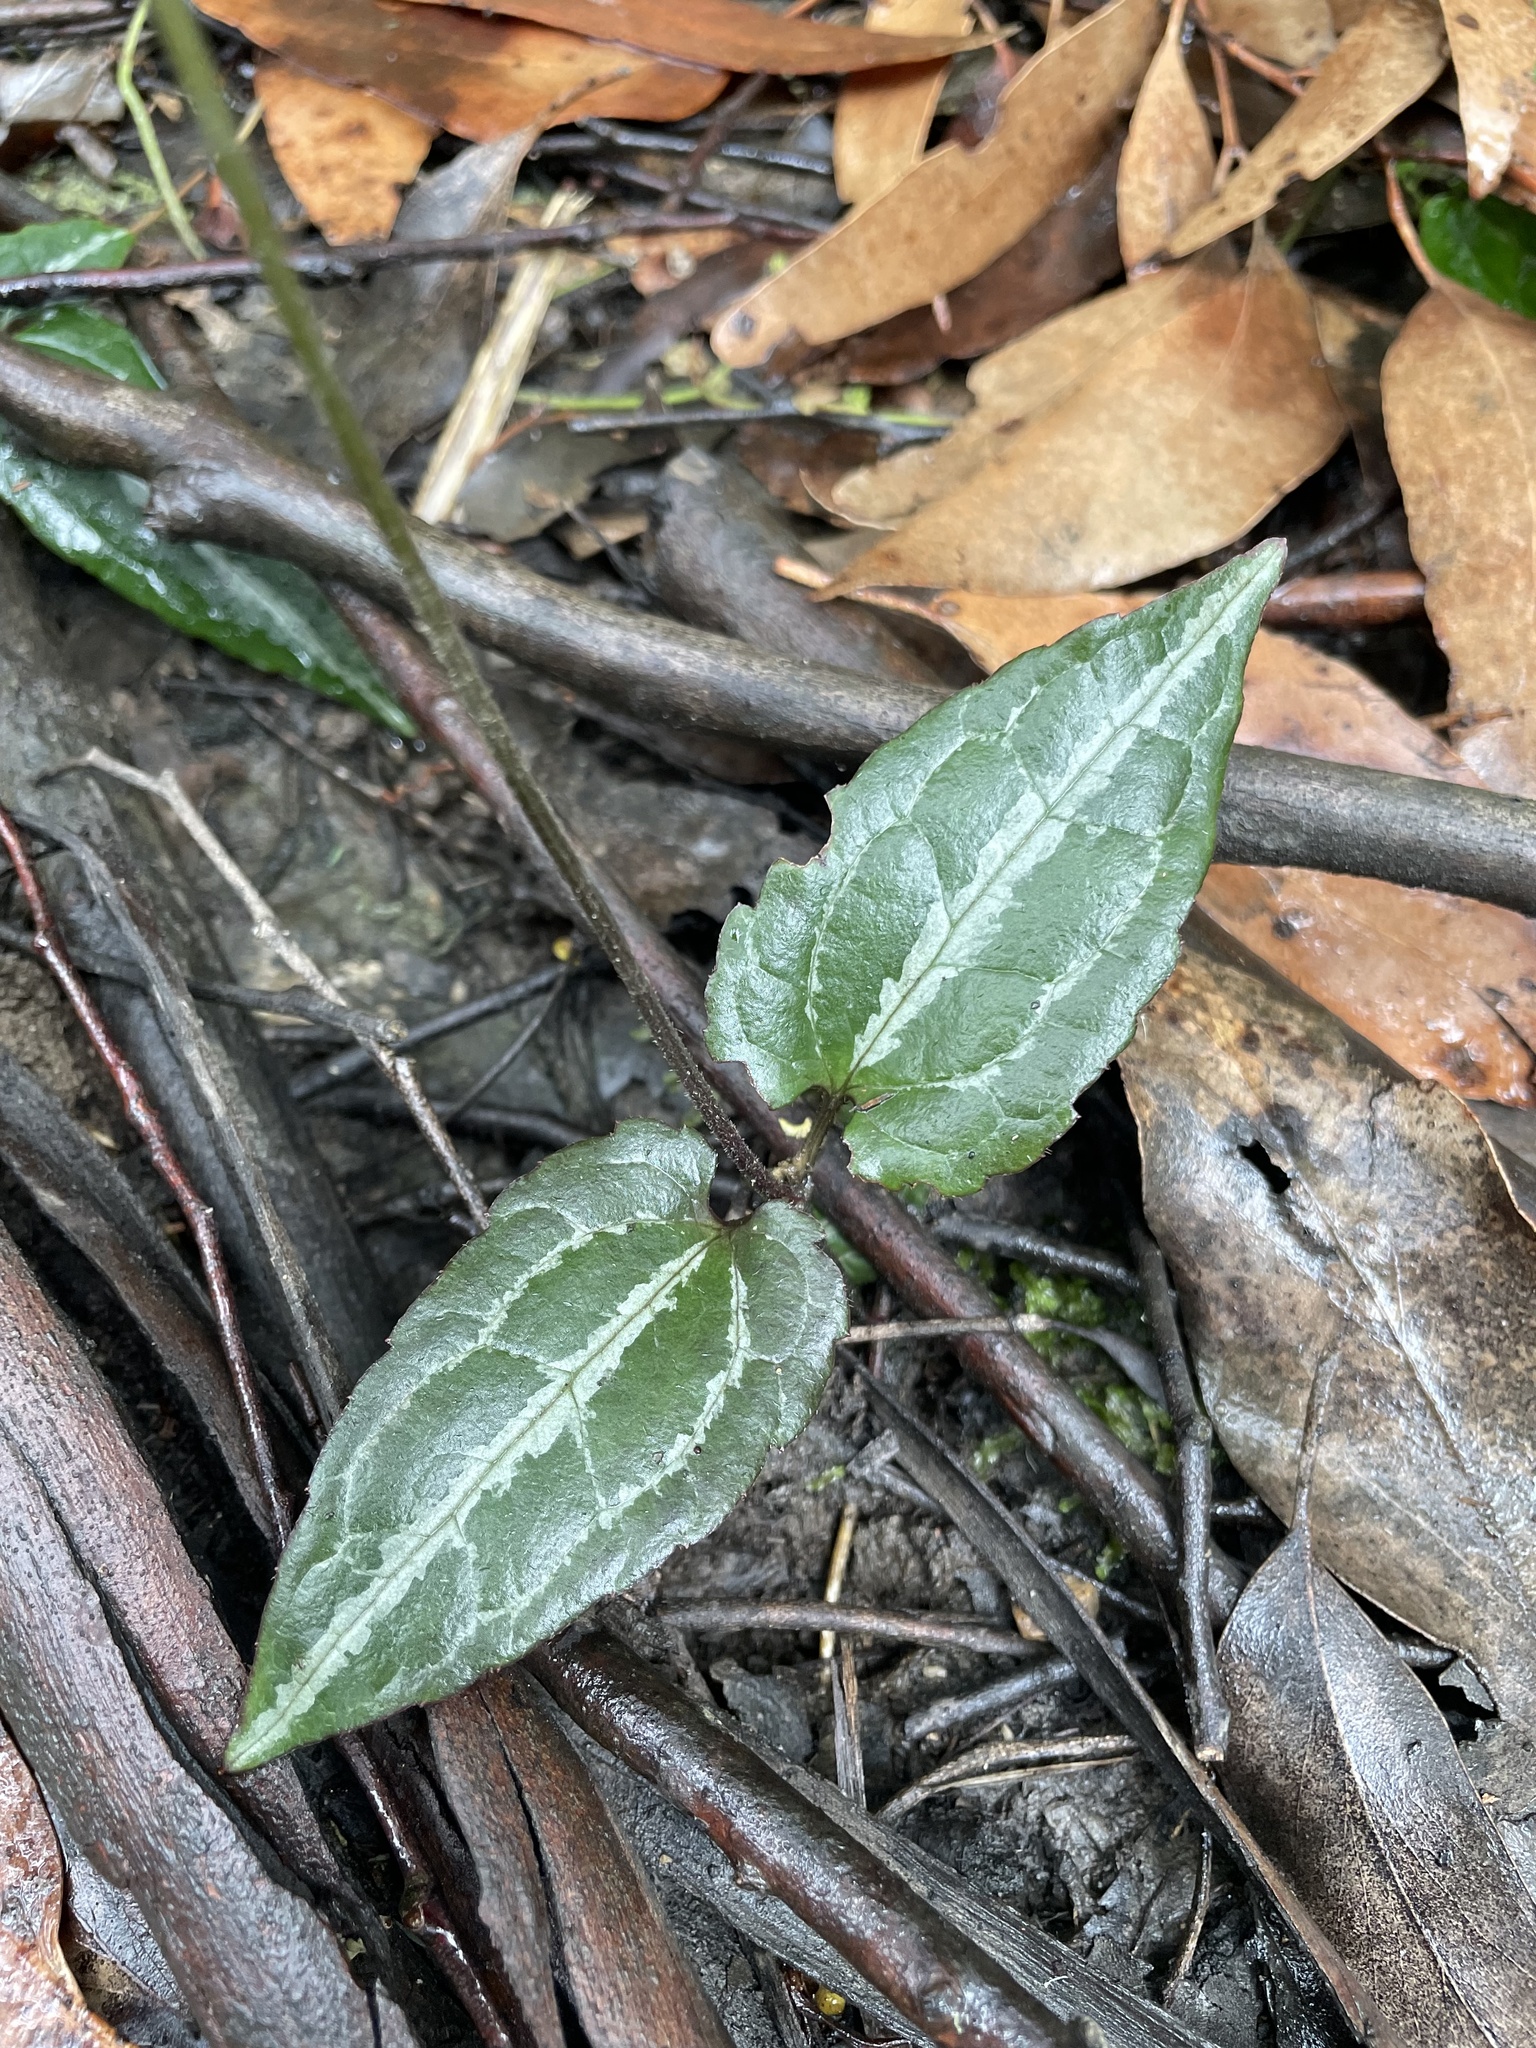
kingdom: Plantae
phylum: Tracheophyta
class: Magnoliopsida
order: Ranunculales
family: Ranunculaceae
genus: Clematis
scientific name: Clematis aristata
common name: Mountain clematis
